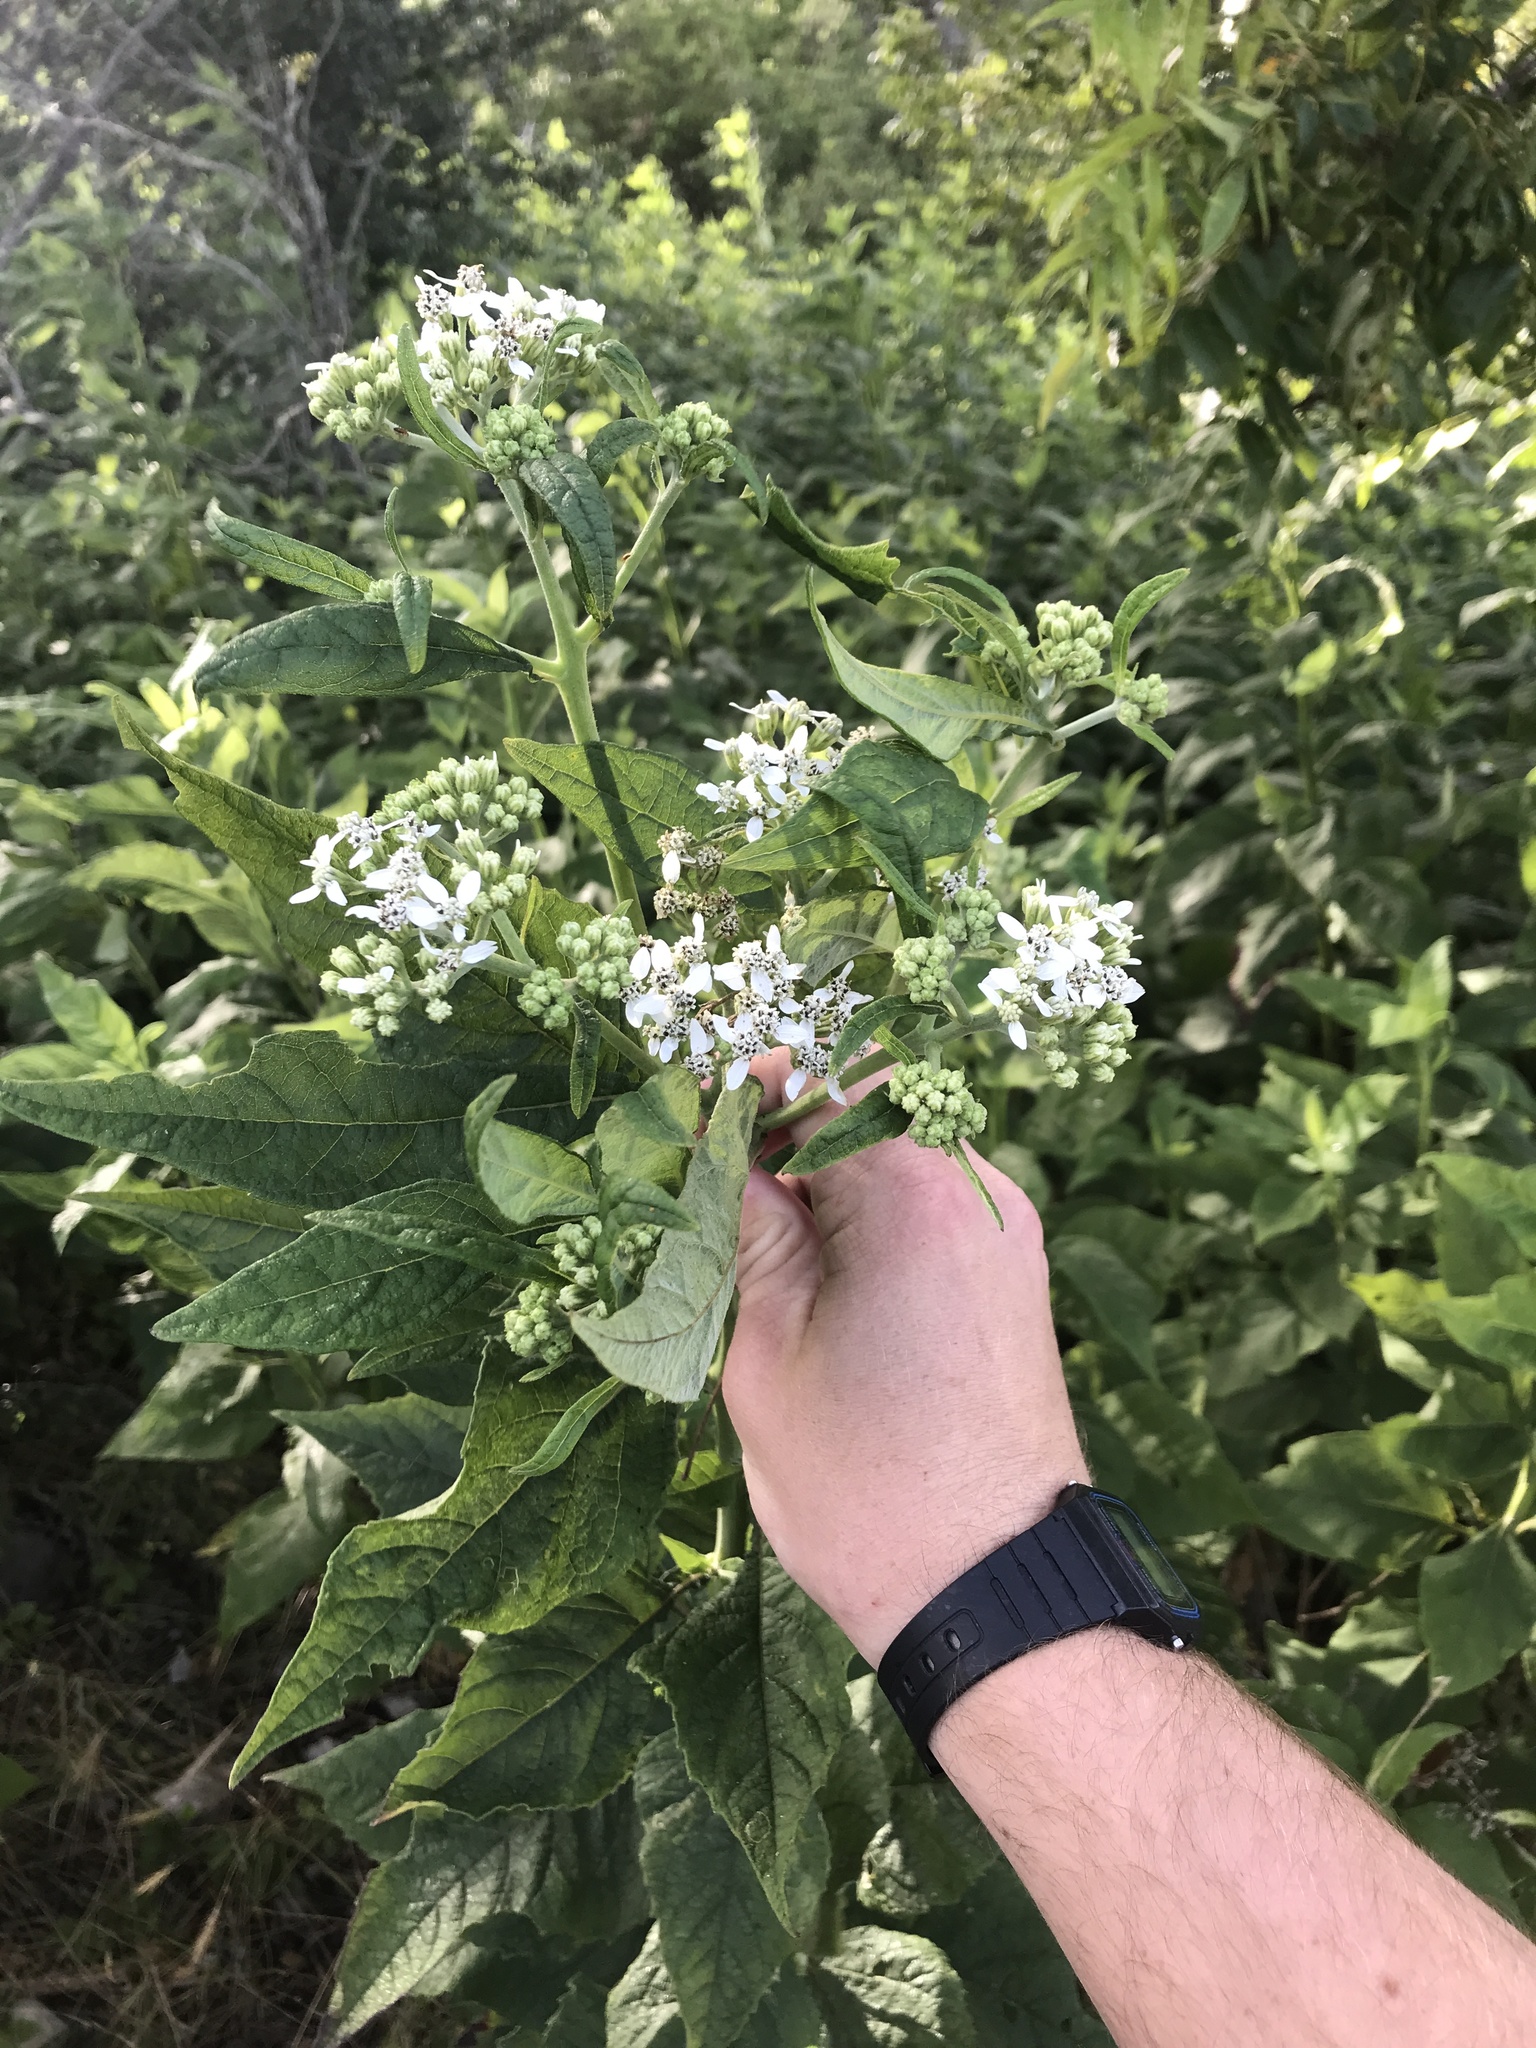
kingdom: Plantae
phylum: Tracheophyta
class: Magnoliopsida
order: Asterales
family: Asteraceae
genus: Verbesina
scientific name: Verbesina virginica
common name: Frostweed
